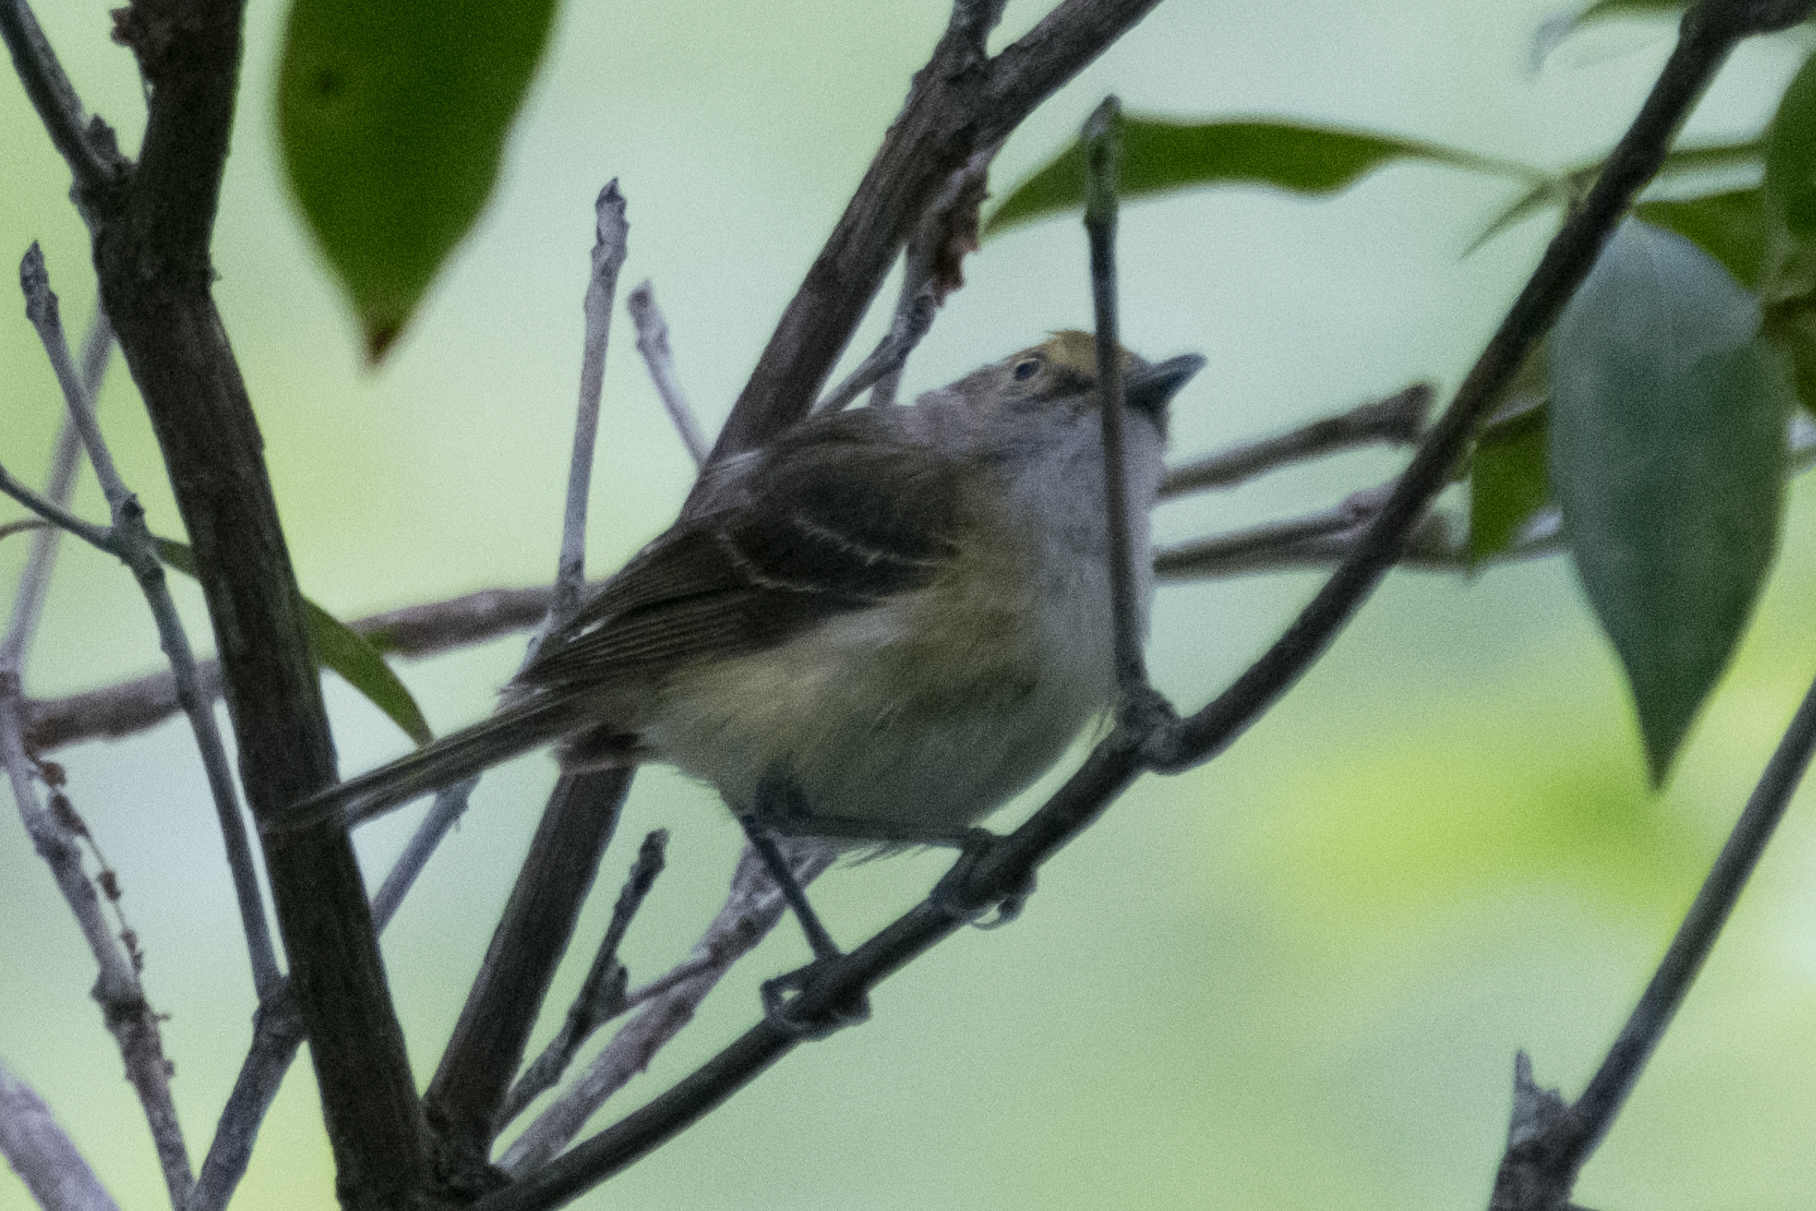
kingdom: Animalia
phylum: Chordata
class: Aves
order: Passeriformes
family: Vireonidae
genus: Vireo
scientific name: Vireo griseus
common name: White-eyed vireo
